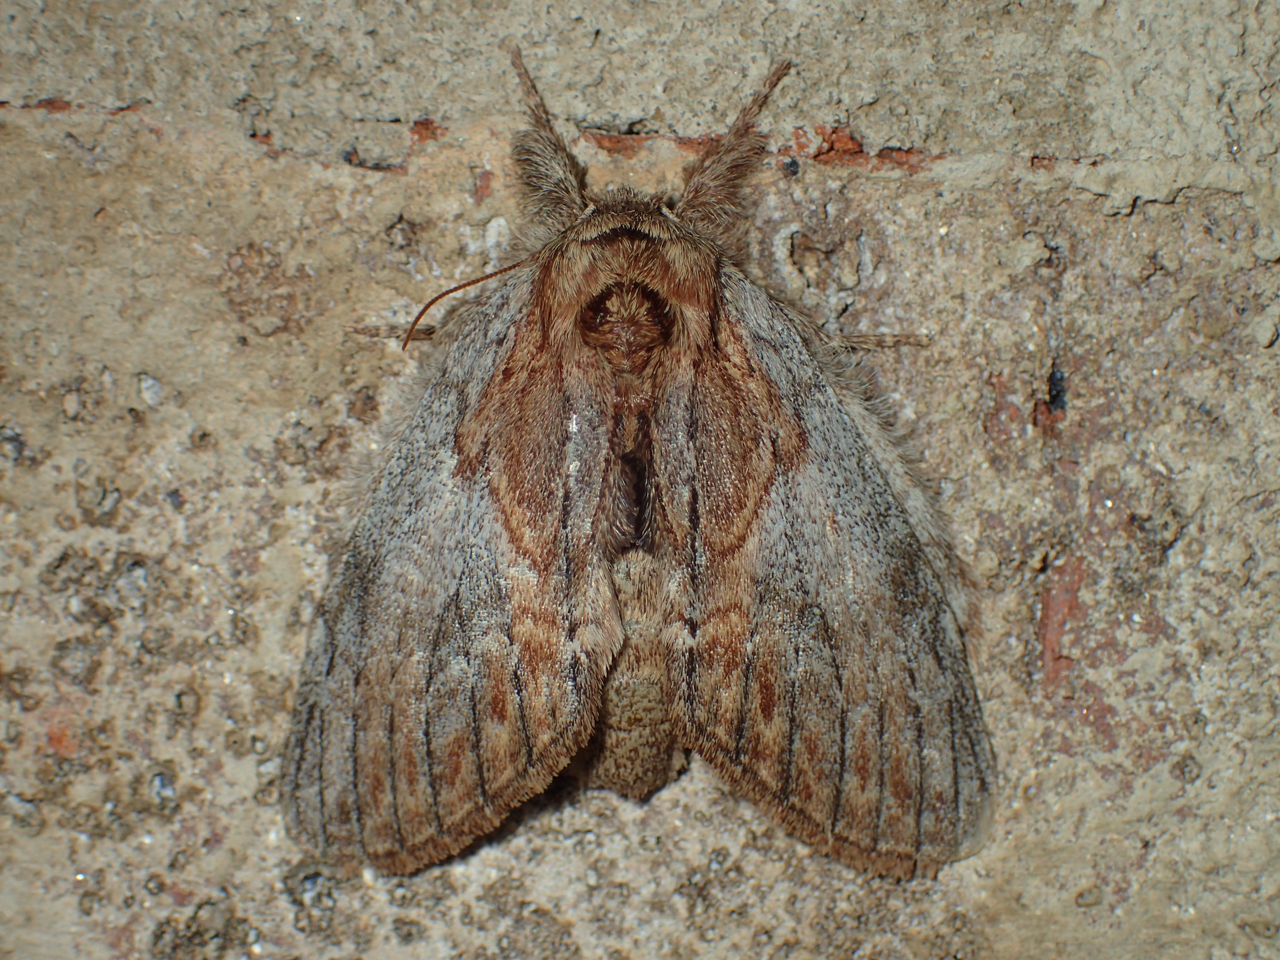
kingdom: Animalia
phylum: Arthropoda
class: Insecta
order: Lepidoptera
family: Notodontidae
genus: Peridea
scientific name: Peridea basitriens
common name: Oval-based prominent
